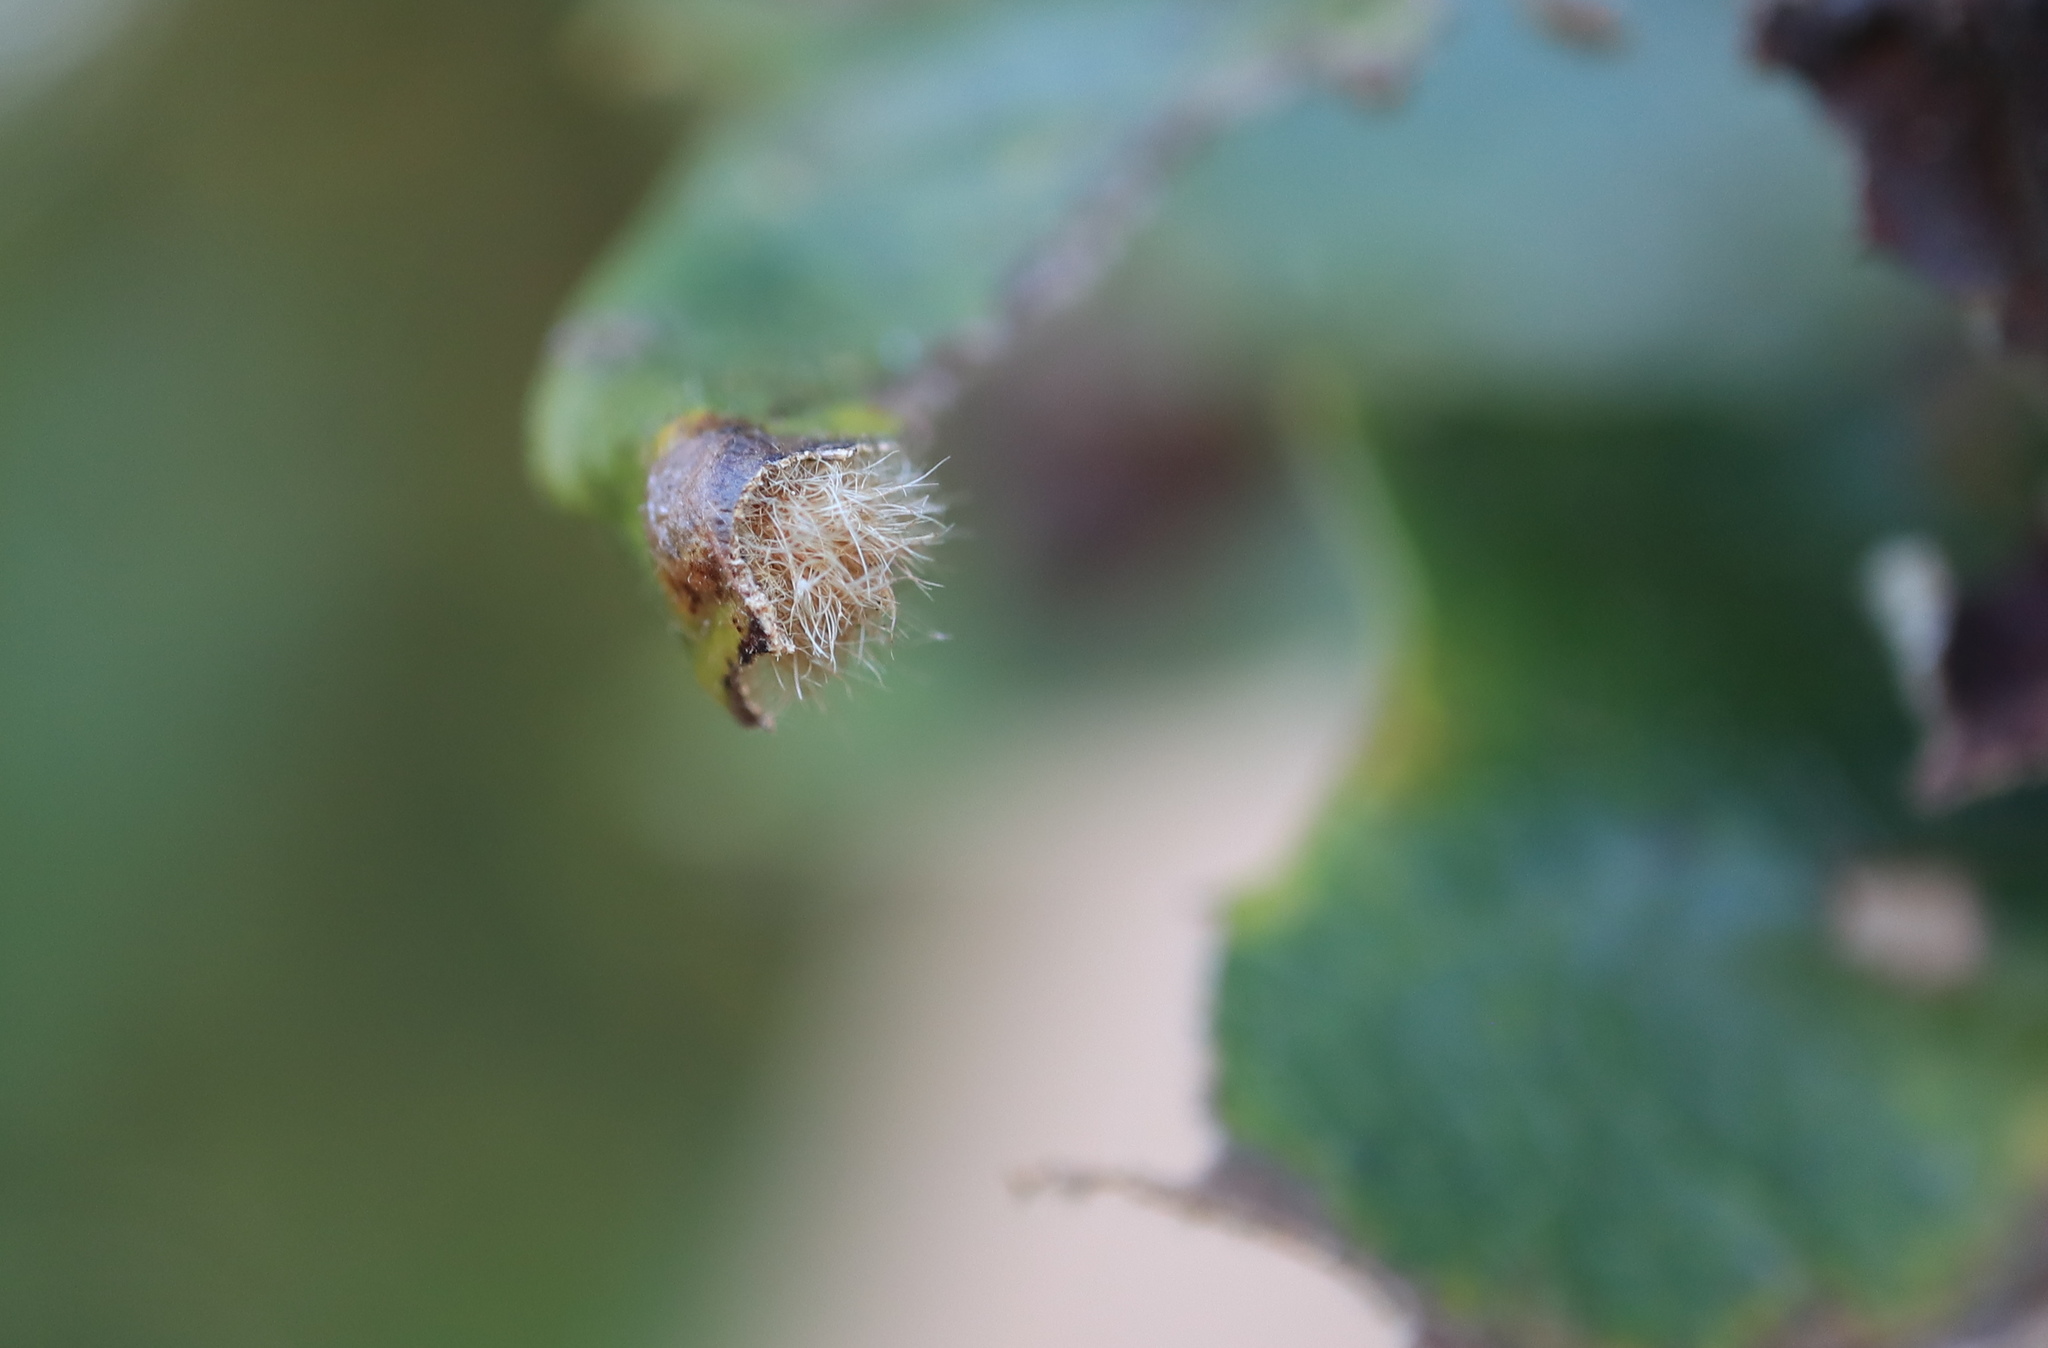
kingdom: Animalia
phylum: Arthropoda
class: Insecta
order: Hymenoptera
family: Cynipidae
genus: Neuroterus
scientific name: Neuroterus floccosus
